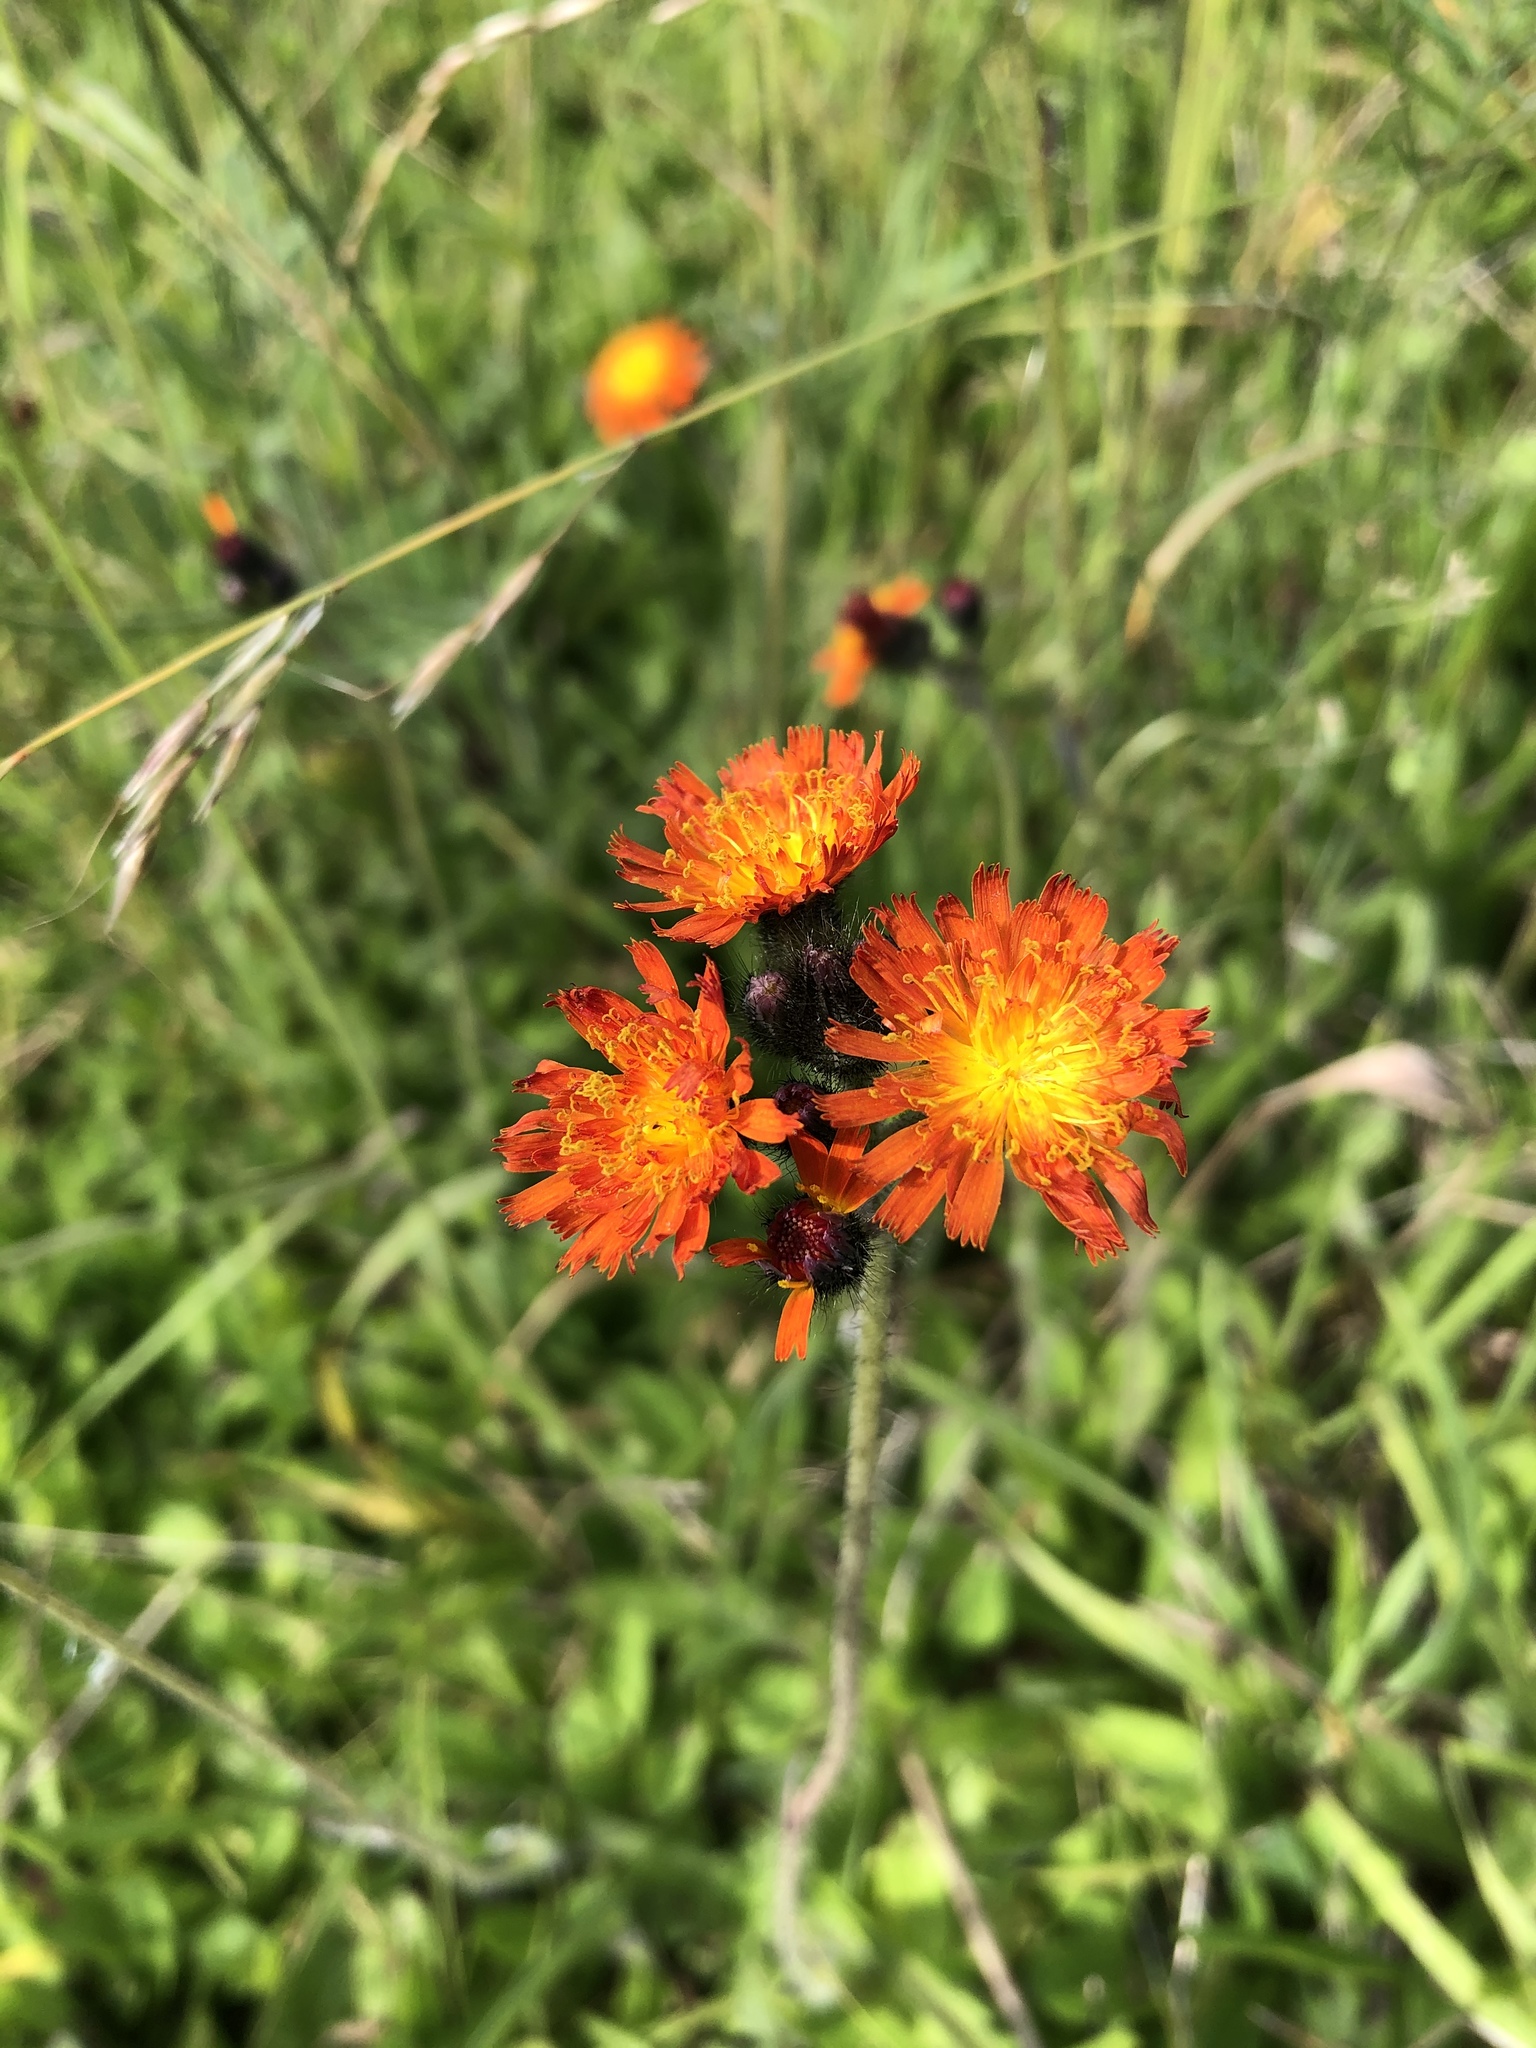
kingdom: Plantae
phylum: Tracheophyta
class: Magnoliopsida
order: Asterales
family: Asteraceae
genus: Pilosella
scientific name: Pilosella aurantiaca
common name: Fox-and-cubs
